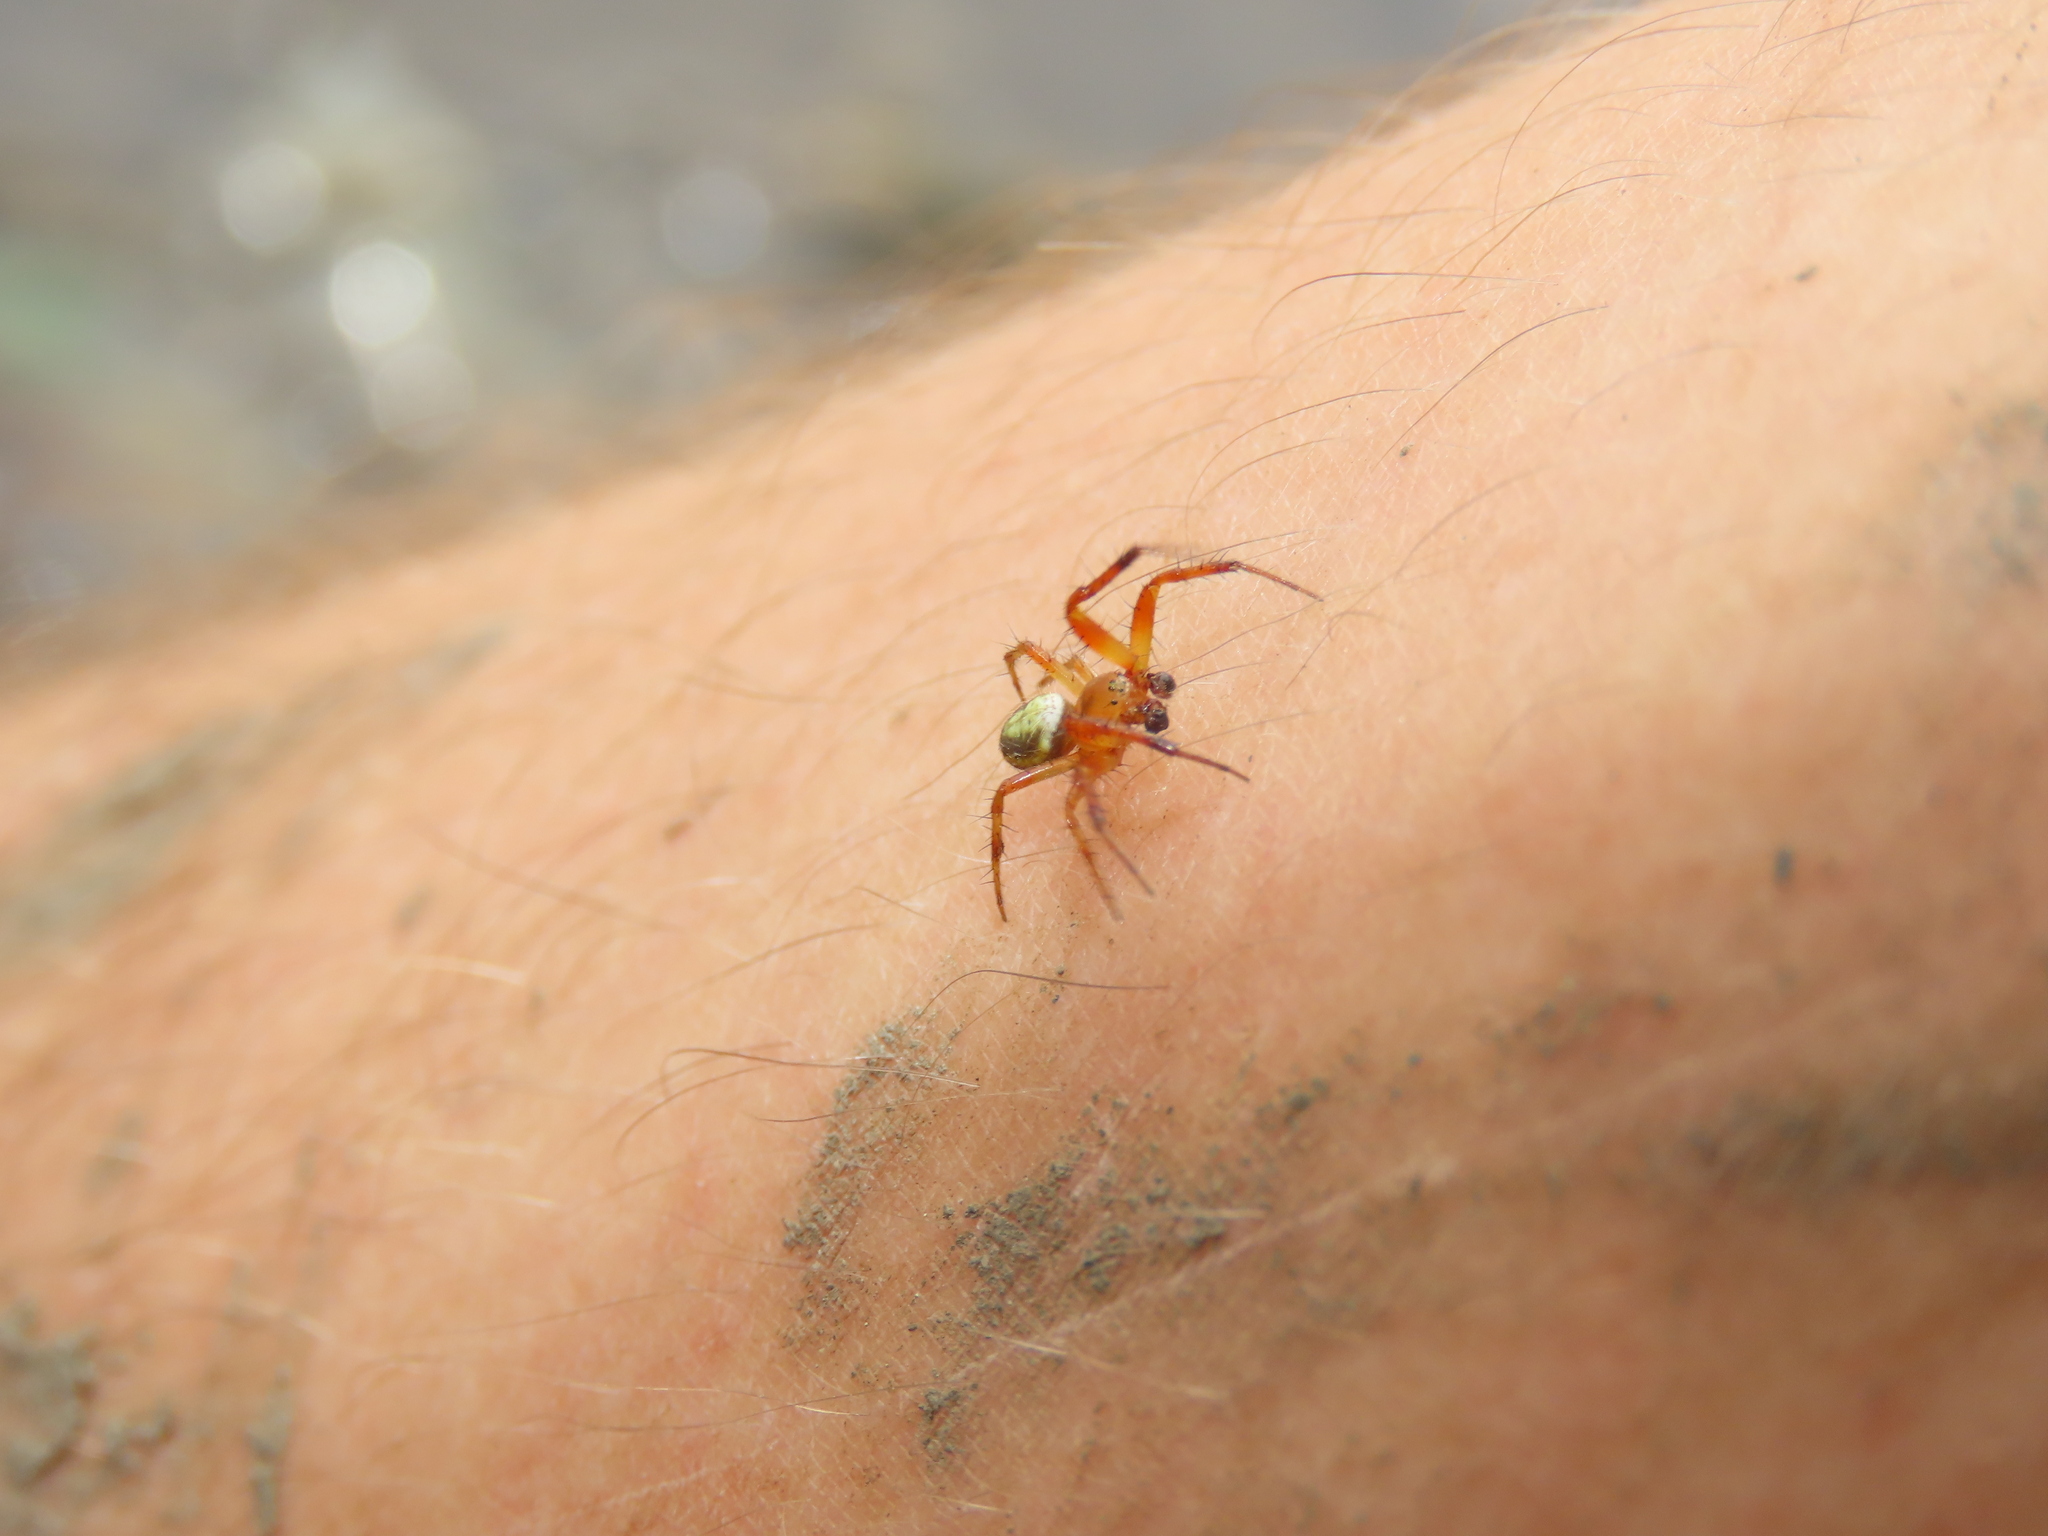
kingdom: Animalia
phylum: Arthropoda
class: Arachnida
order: Araneae
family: Araneidae
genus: Araniella
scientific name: Araniella displicata
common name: Sixspotted orb weaver
